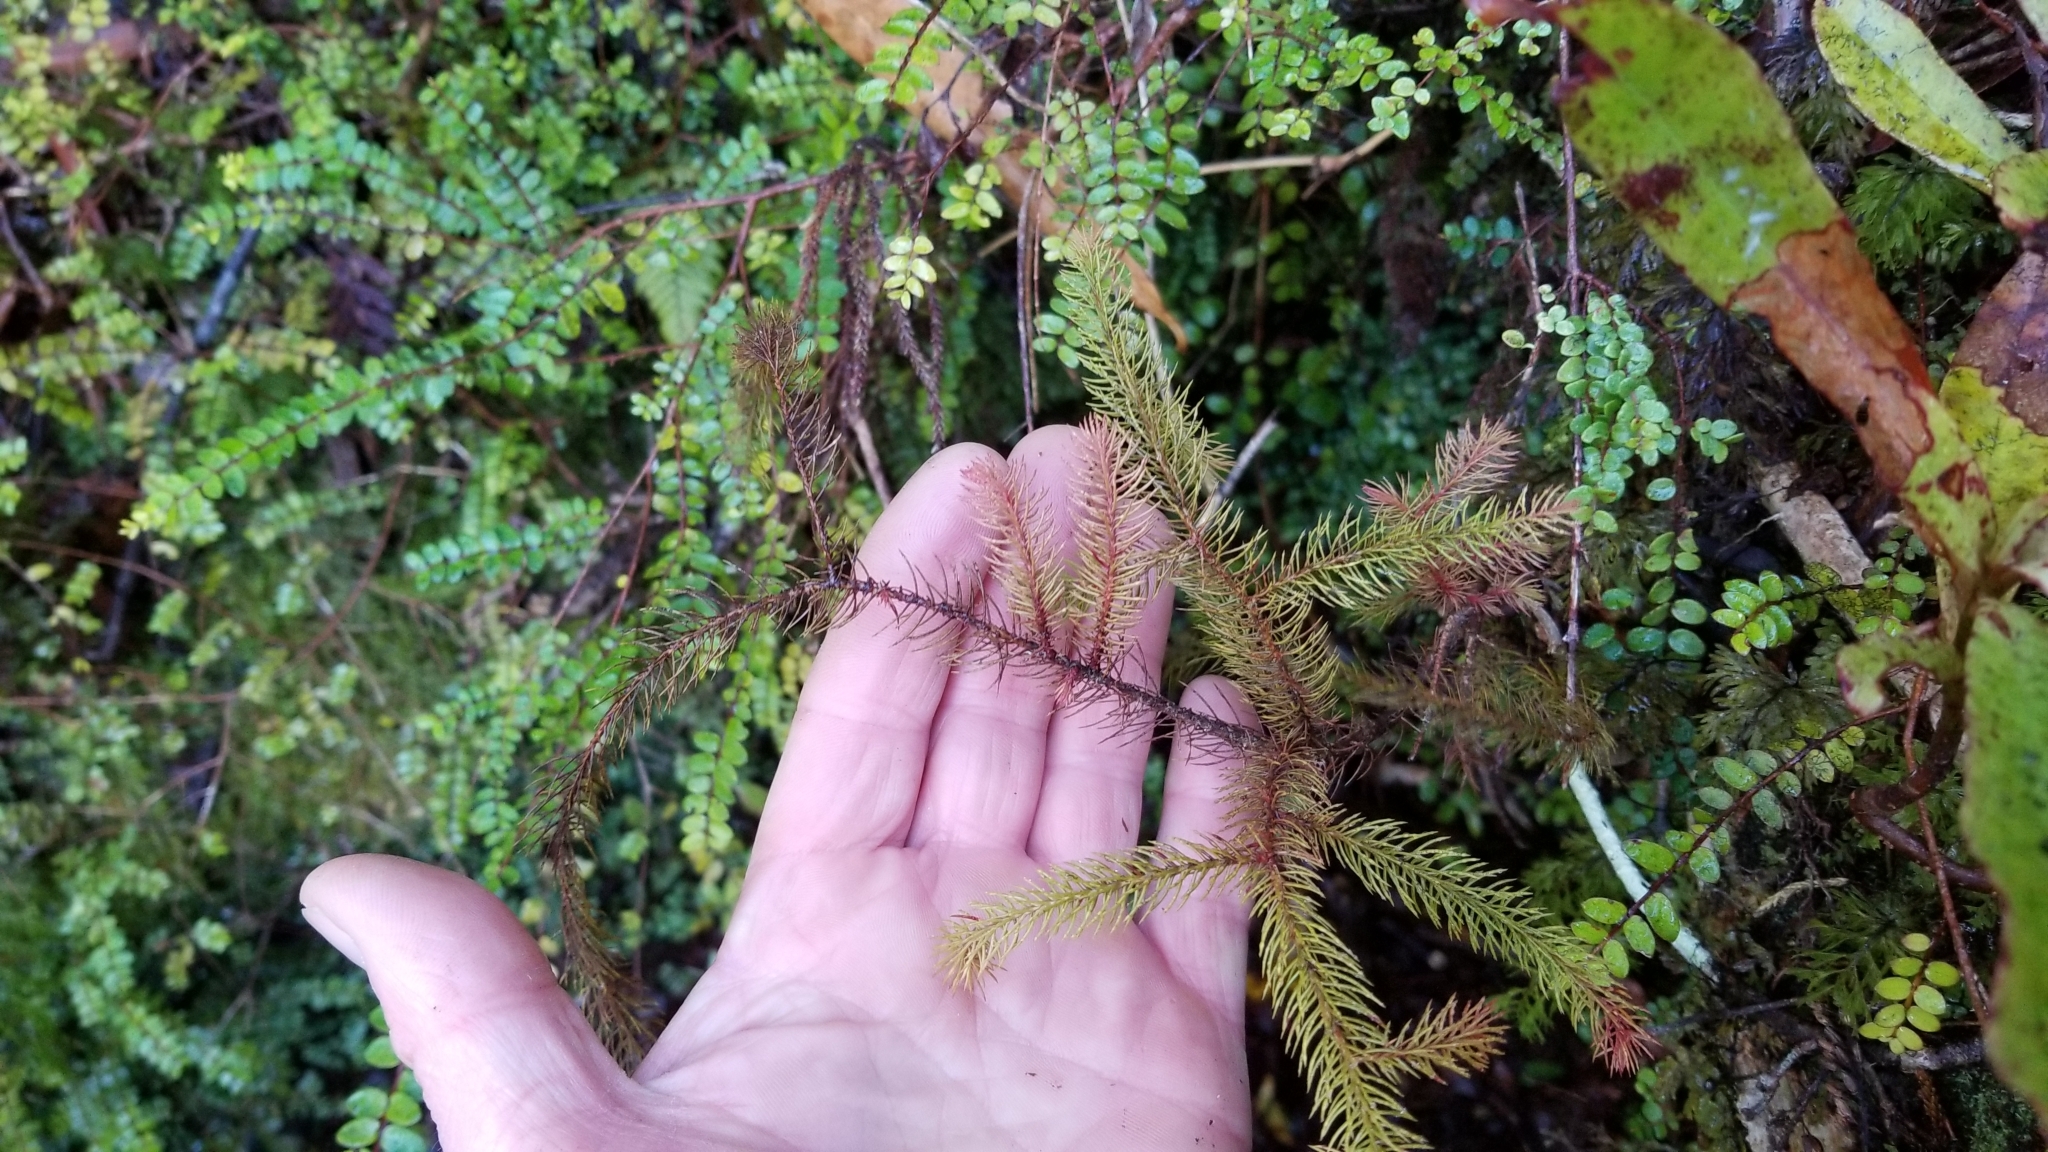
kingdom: Plantae
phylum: Tracheophyta
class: Pinopsida
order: Pinales
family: Podocarpaceae
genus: Dacrydium
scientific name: Dacrydium cupressinum
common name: Red pine
